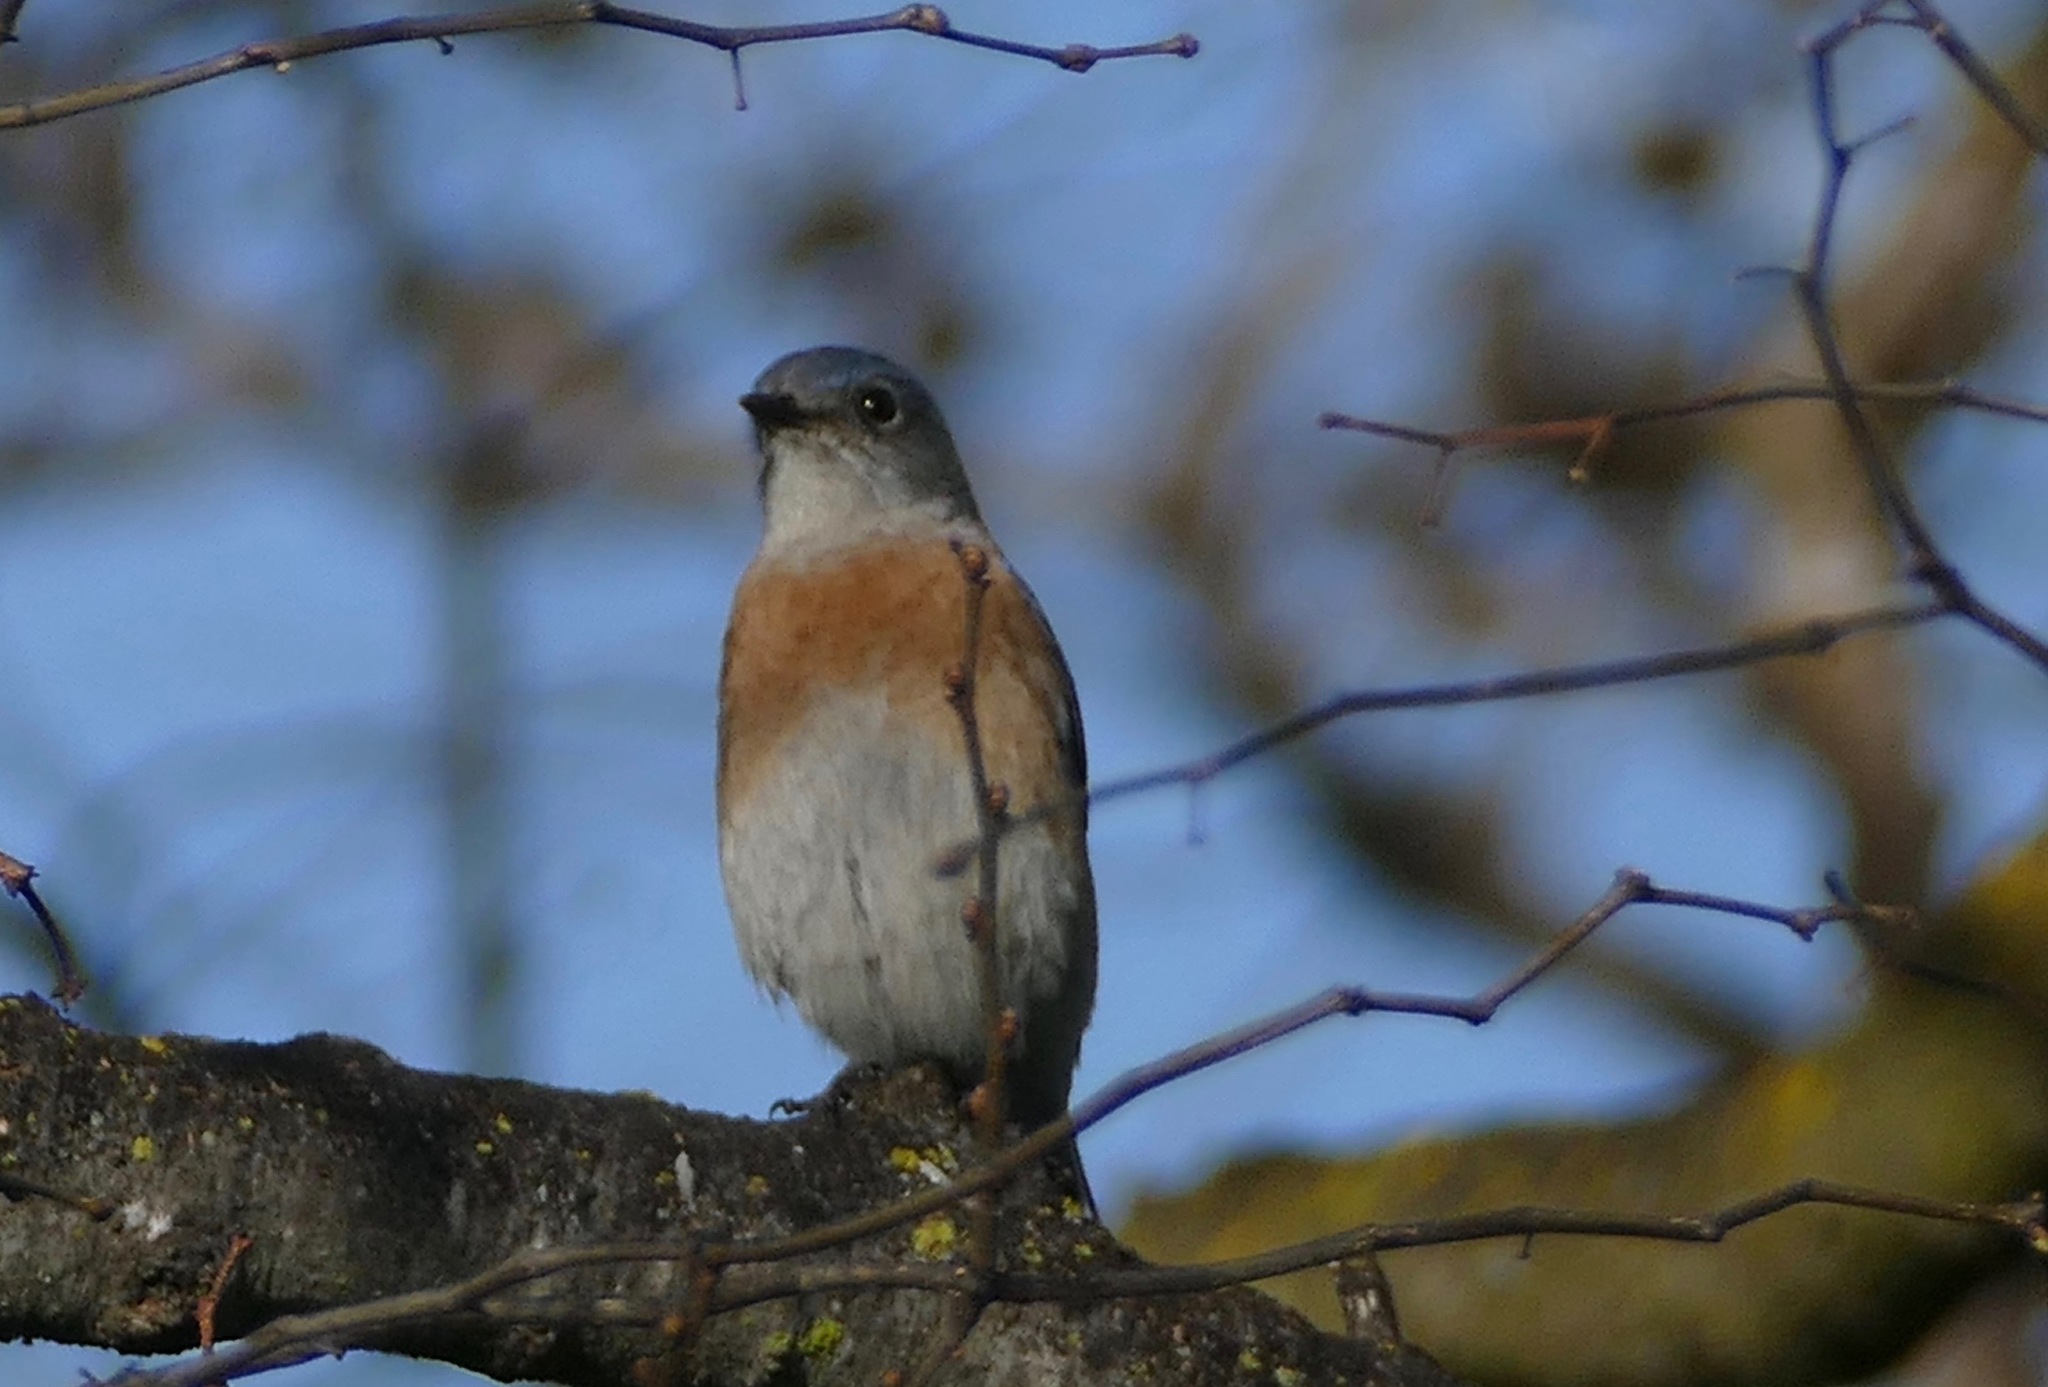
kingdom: Animalia
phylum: Chordata
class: Aves
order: Passeriformes
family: Turdidae
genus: Sialia
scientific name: Sialia mexicana
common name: Western bluebird
